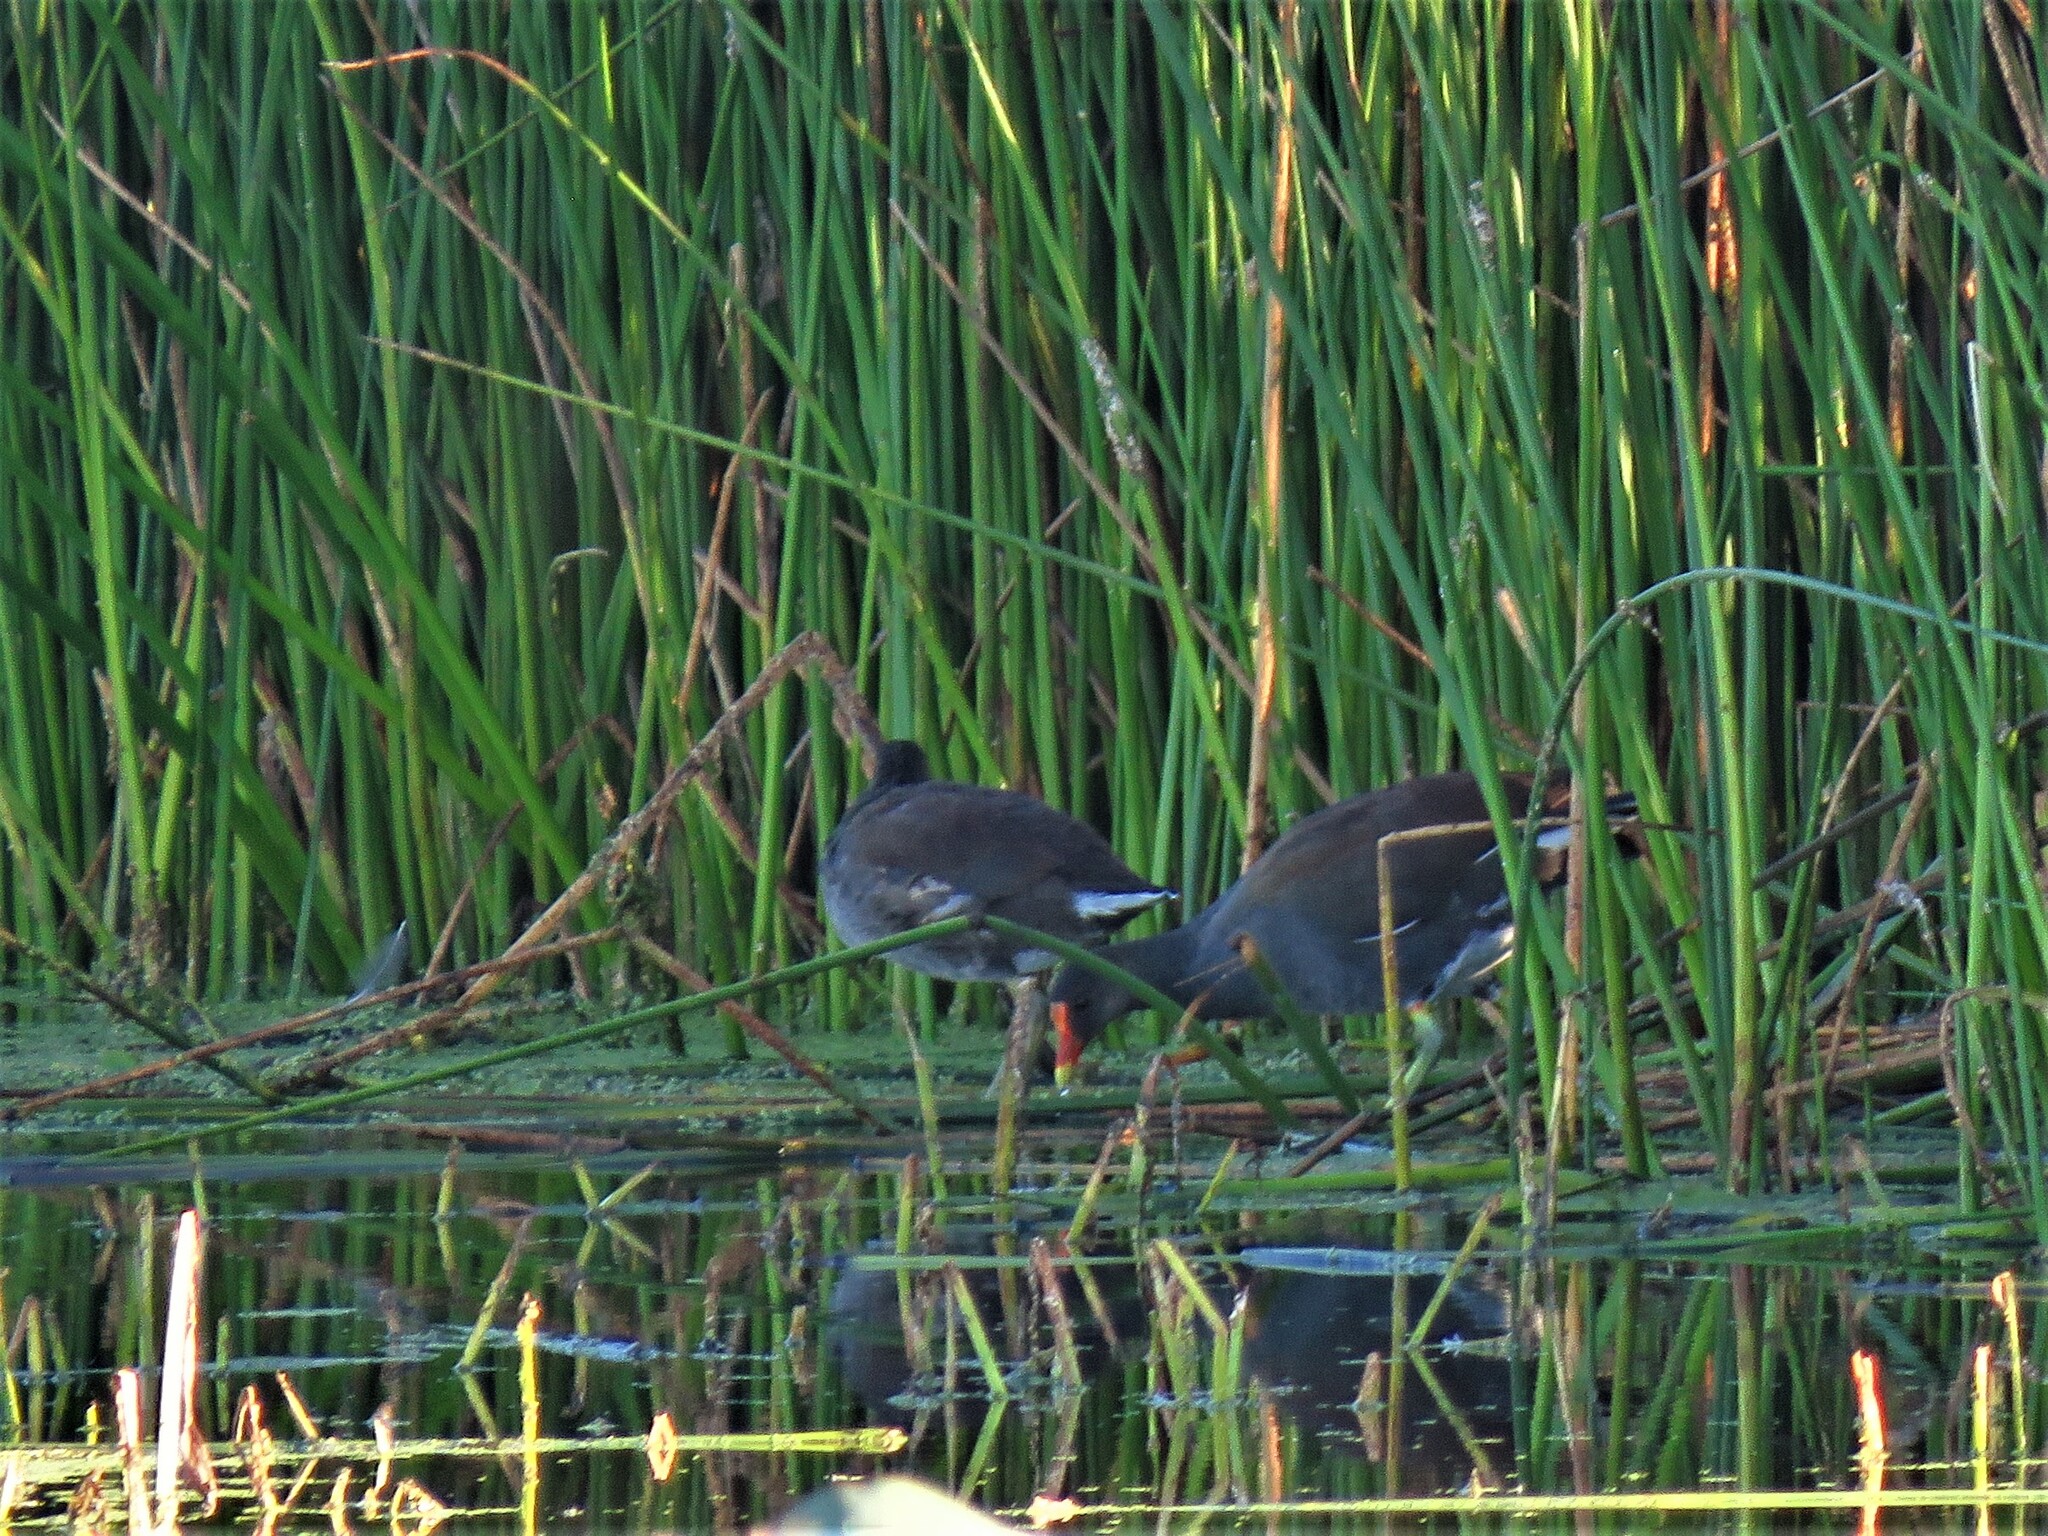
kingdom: Animalia
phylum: Chordata
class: Aves
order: Gruiformes
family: Rallidae
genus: Gallinula
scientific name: Gallinula chloropus
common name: Common moorhen
